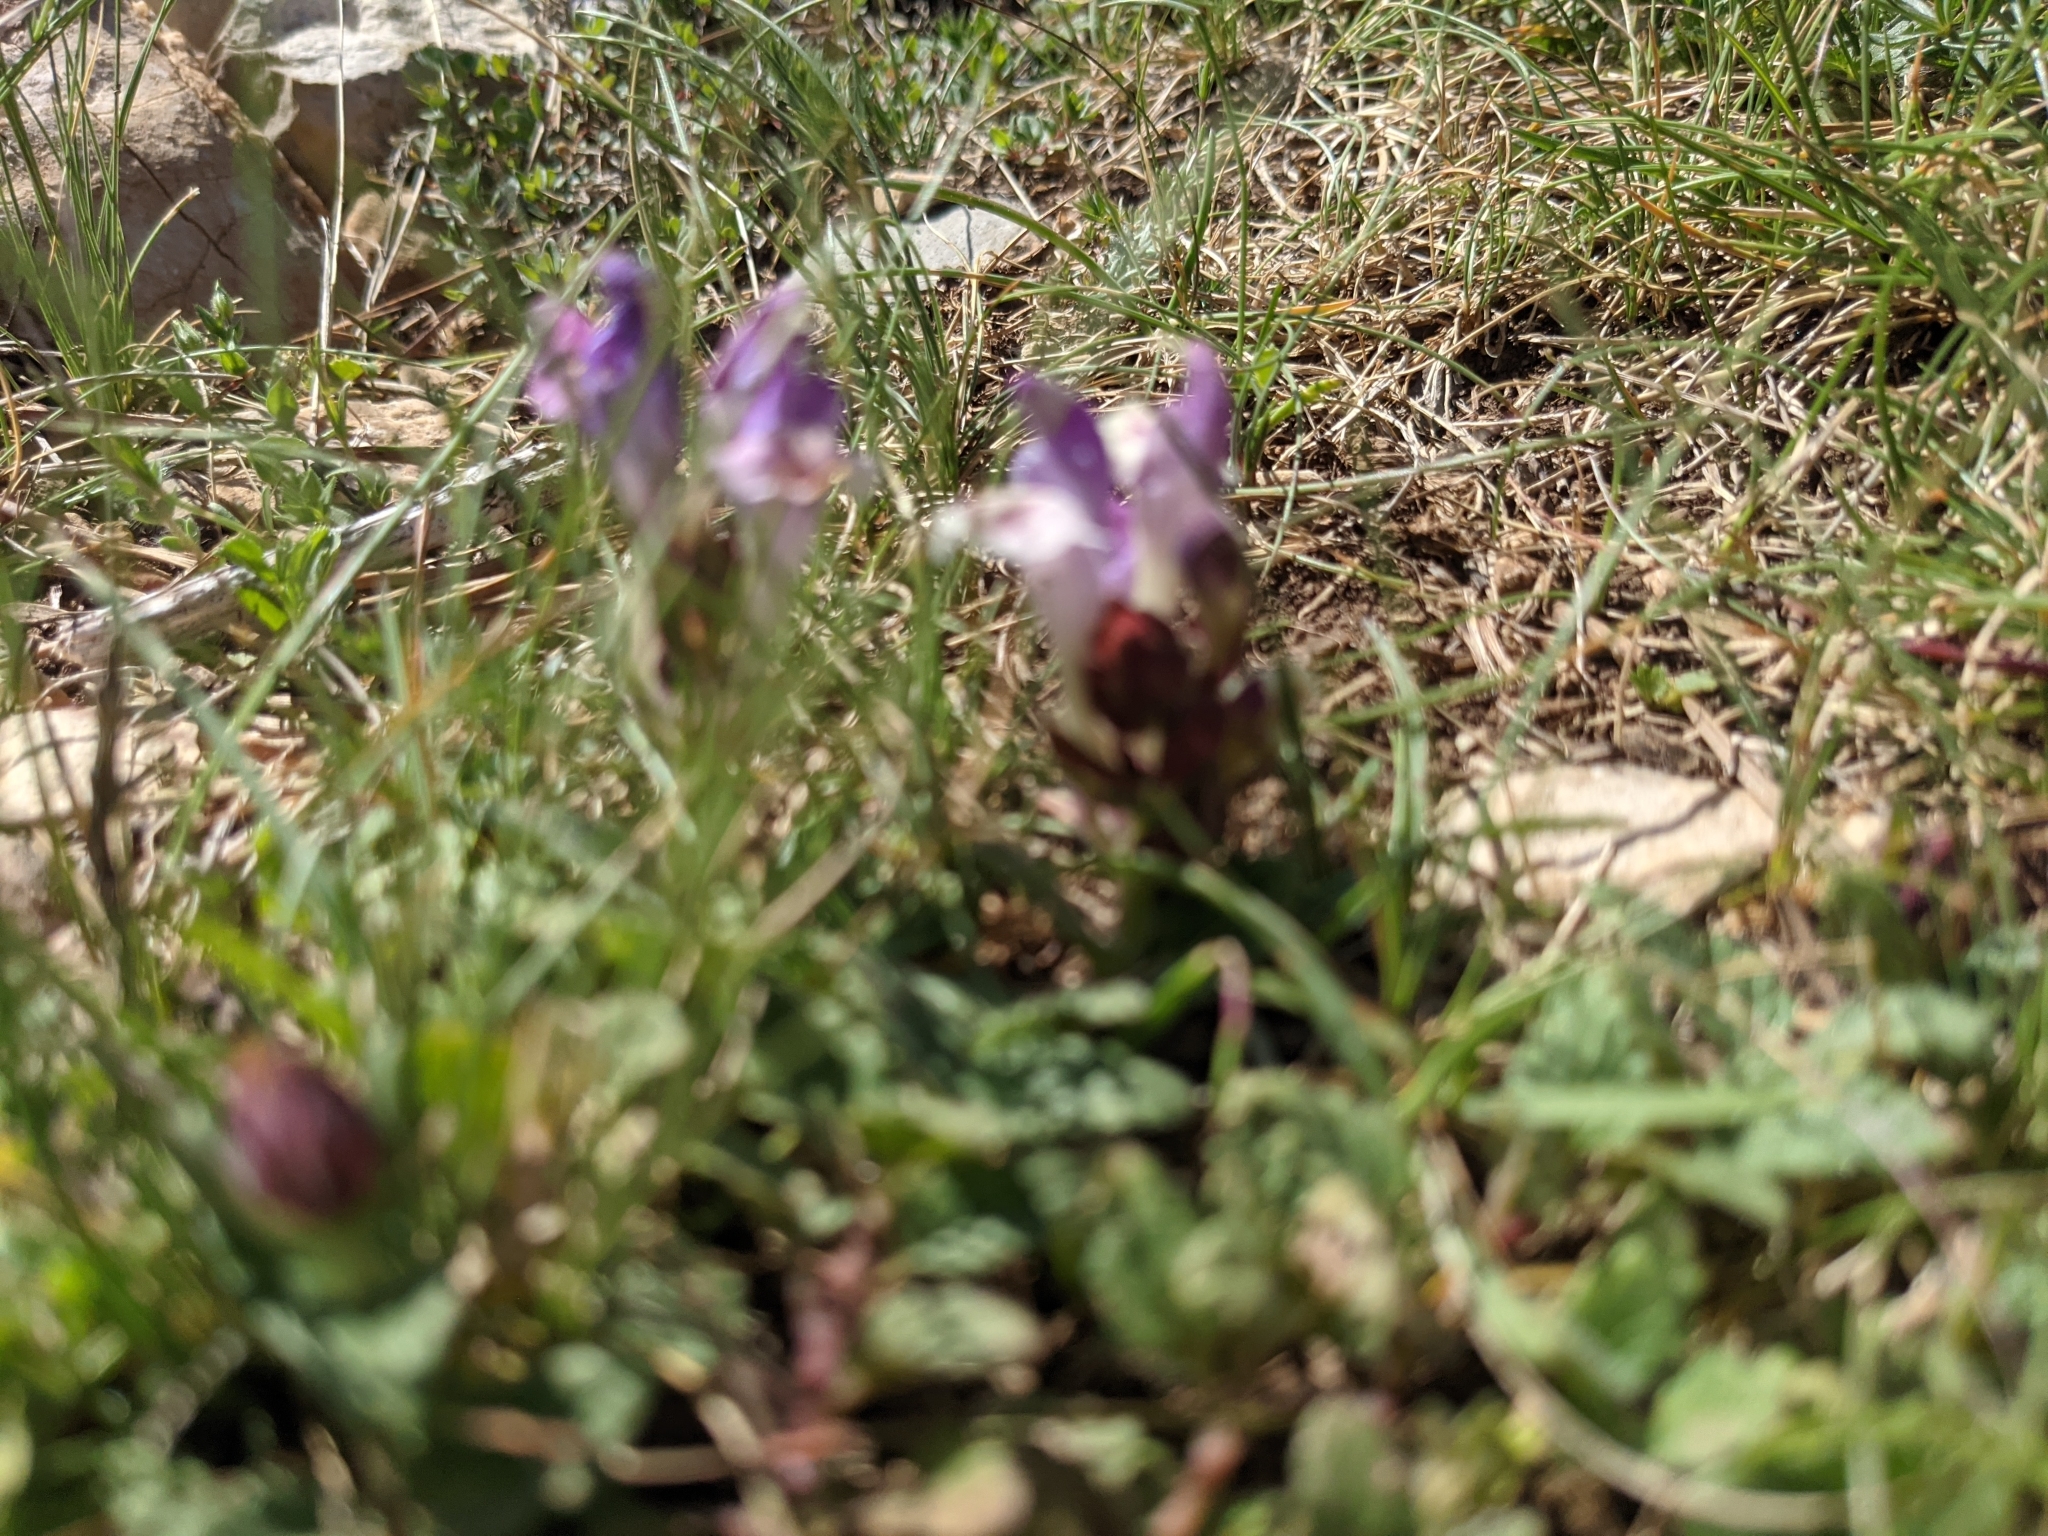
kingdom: Plantae
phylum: Tracheophyta
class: Magnoliopsida
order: Lamiales
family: Lamiaceae
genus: Scutellaria
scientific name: Scutellaria alpina
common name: Alpine scullcap
